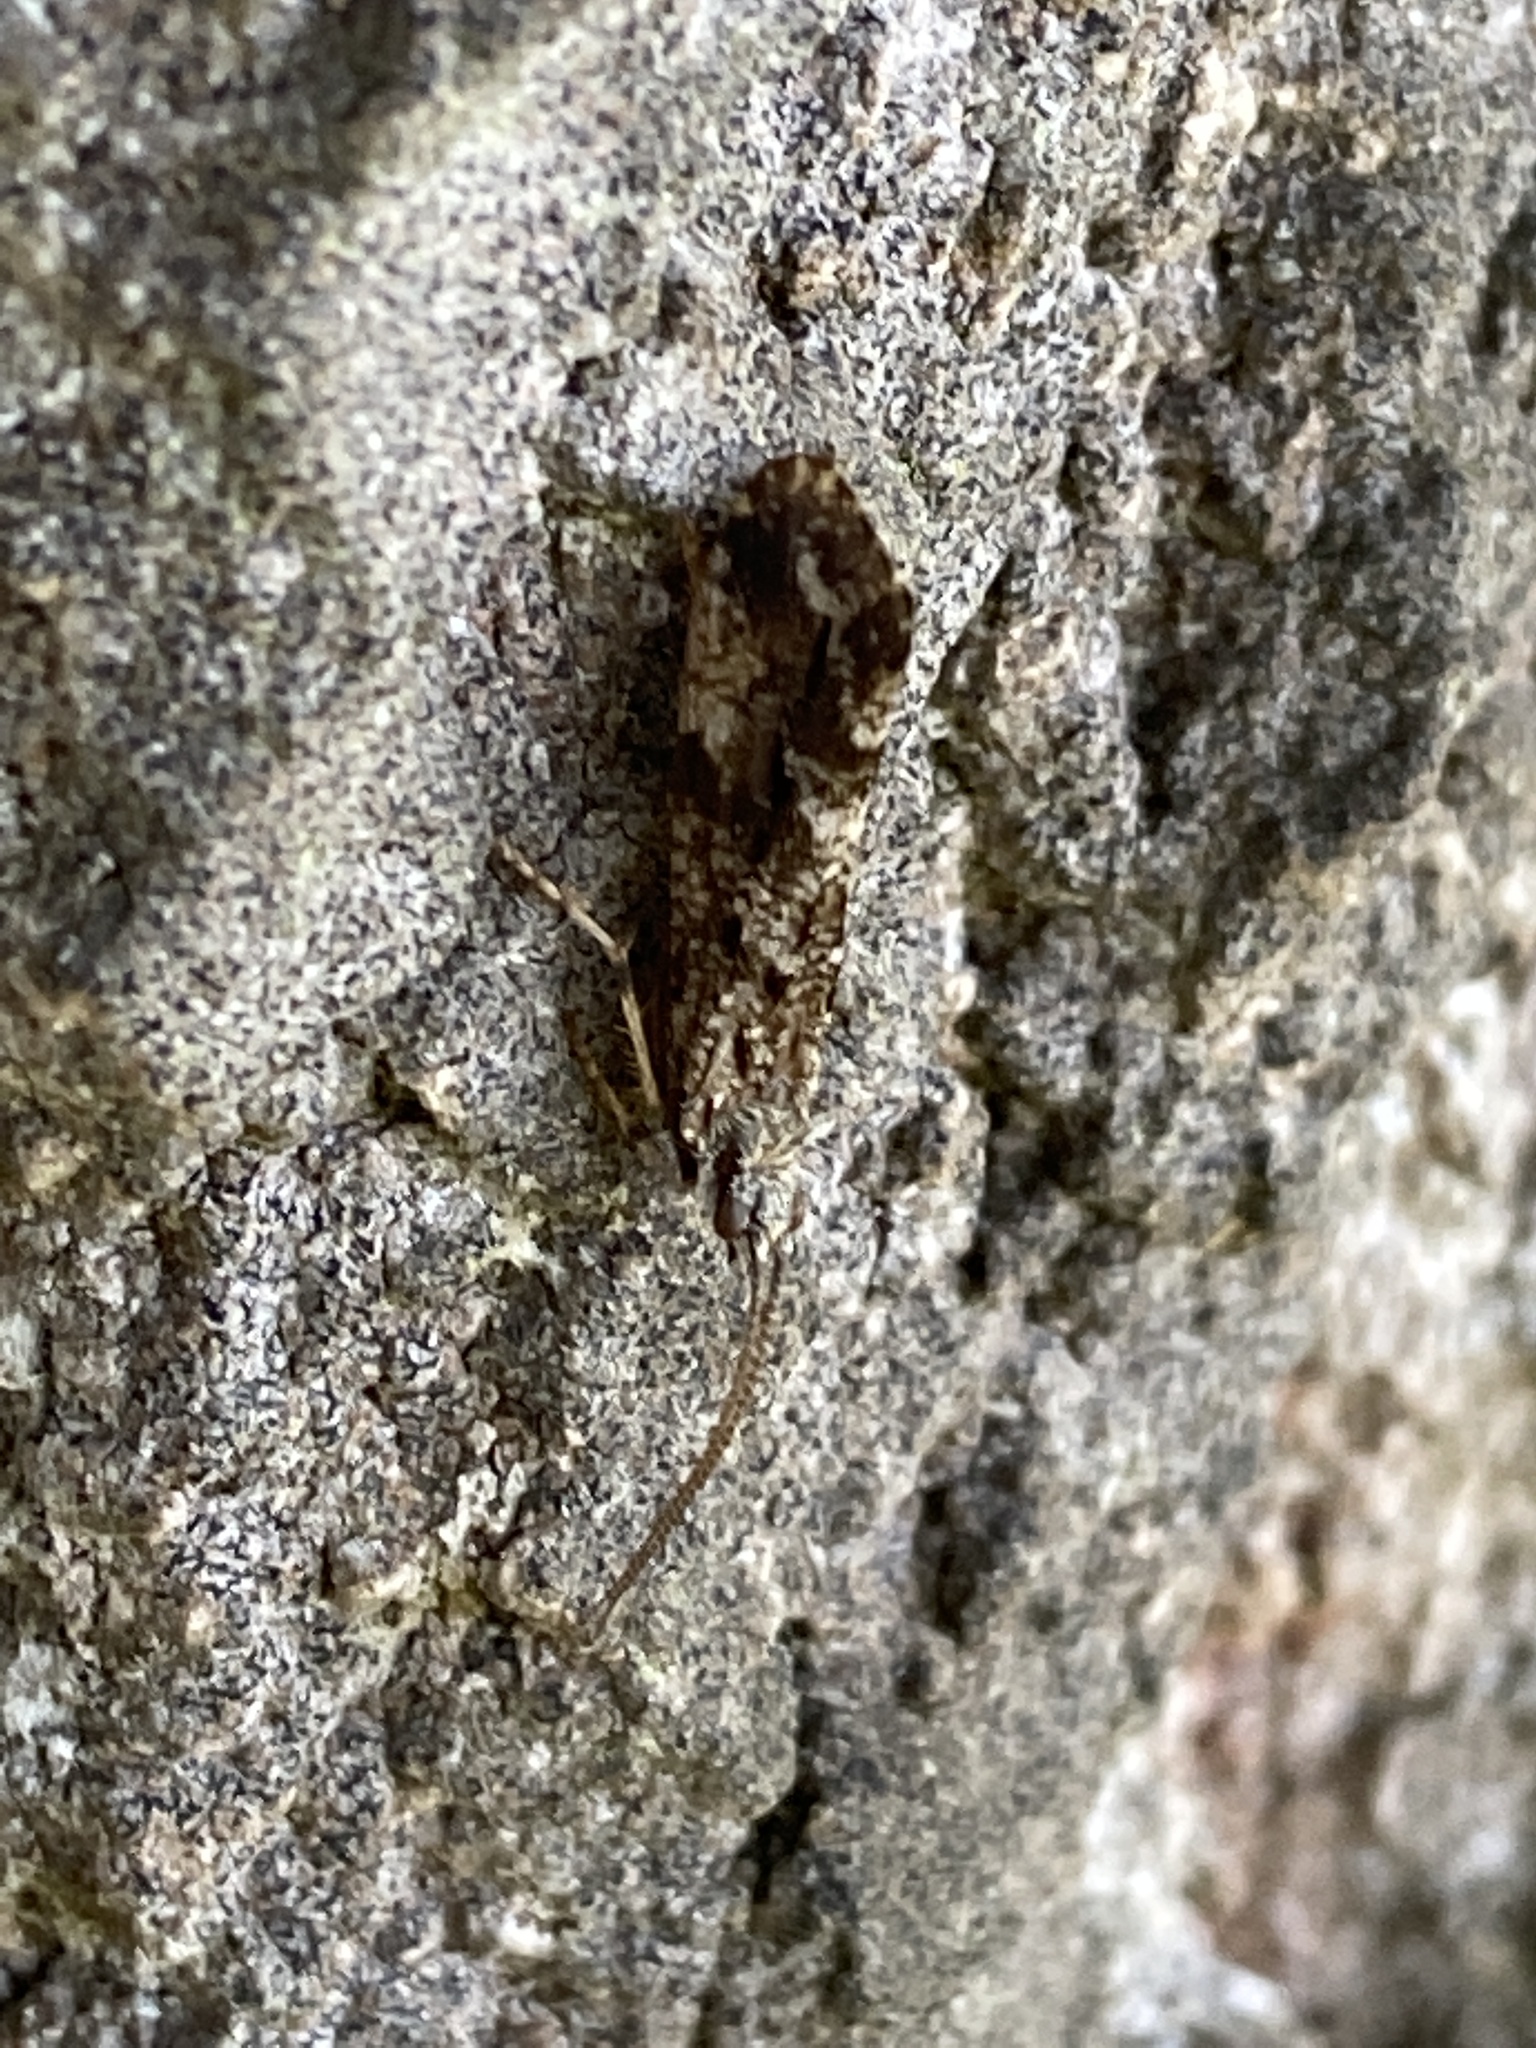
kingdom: Animalia
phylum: Arthropoda
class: Insecta
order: Trichoptera
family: Phryganeidae
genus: Trichostegia
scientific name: Trichostegia minor
